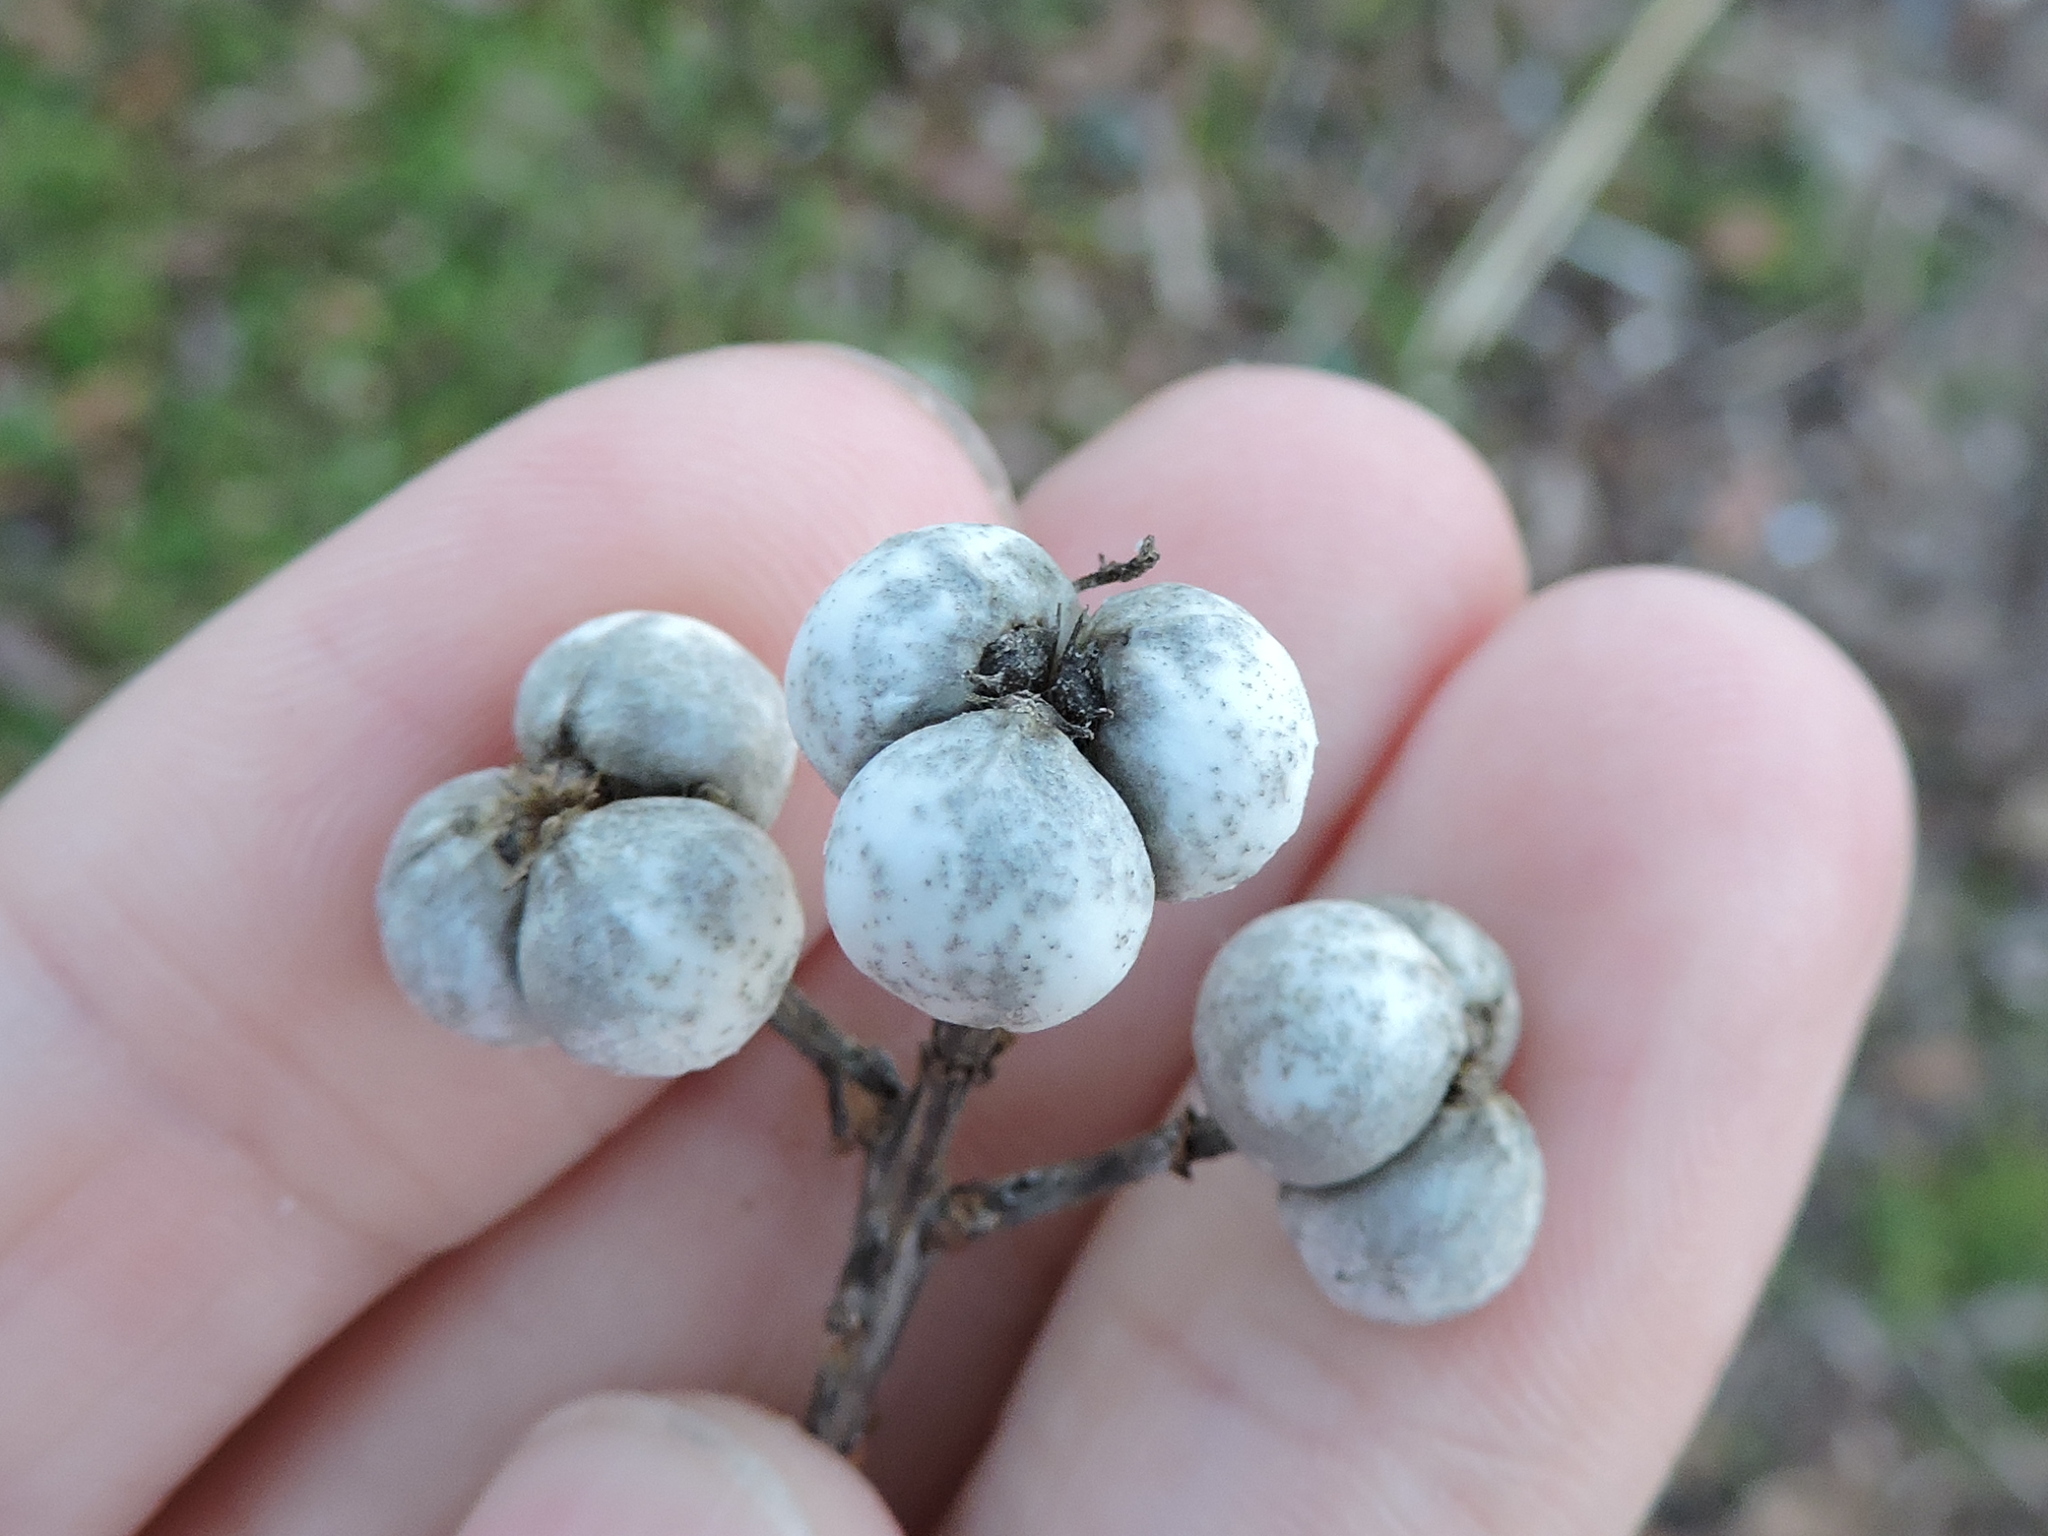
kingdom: Plantae
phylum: Tracheophyta
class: Magnoliopsida
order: Malpighiales
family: Euphorbiaceae
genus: Triadica
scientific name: Triadica sebifera
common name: Chinese tallow
